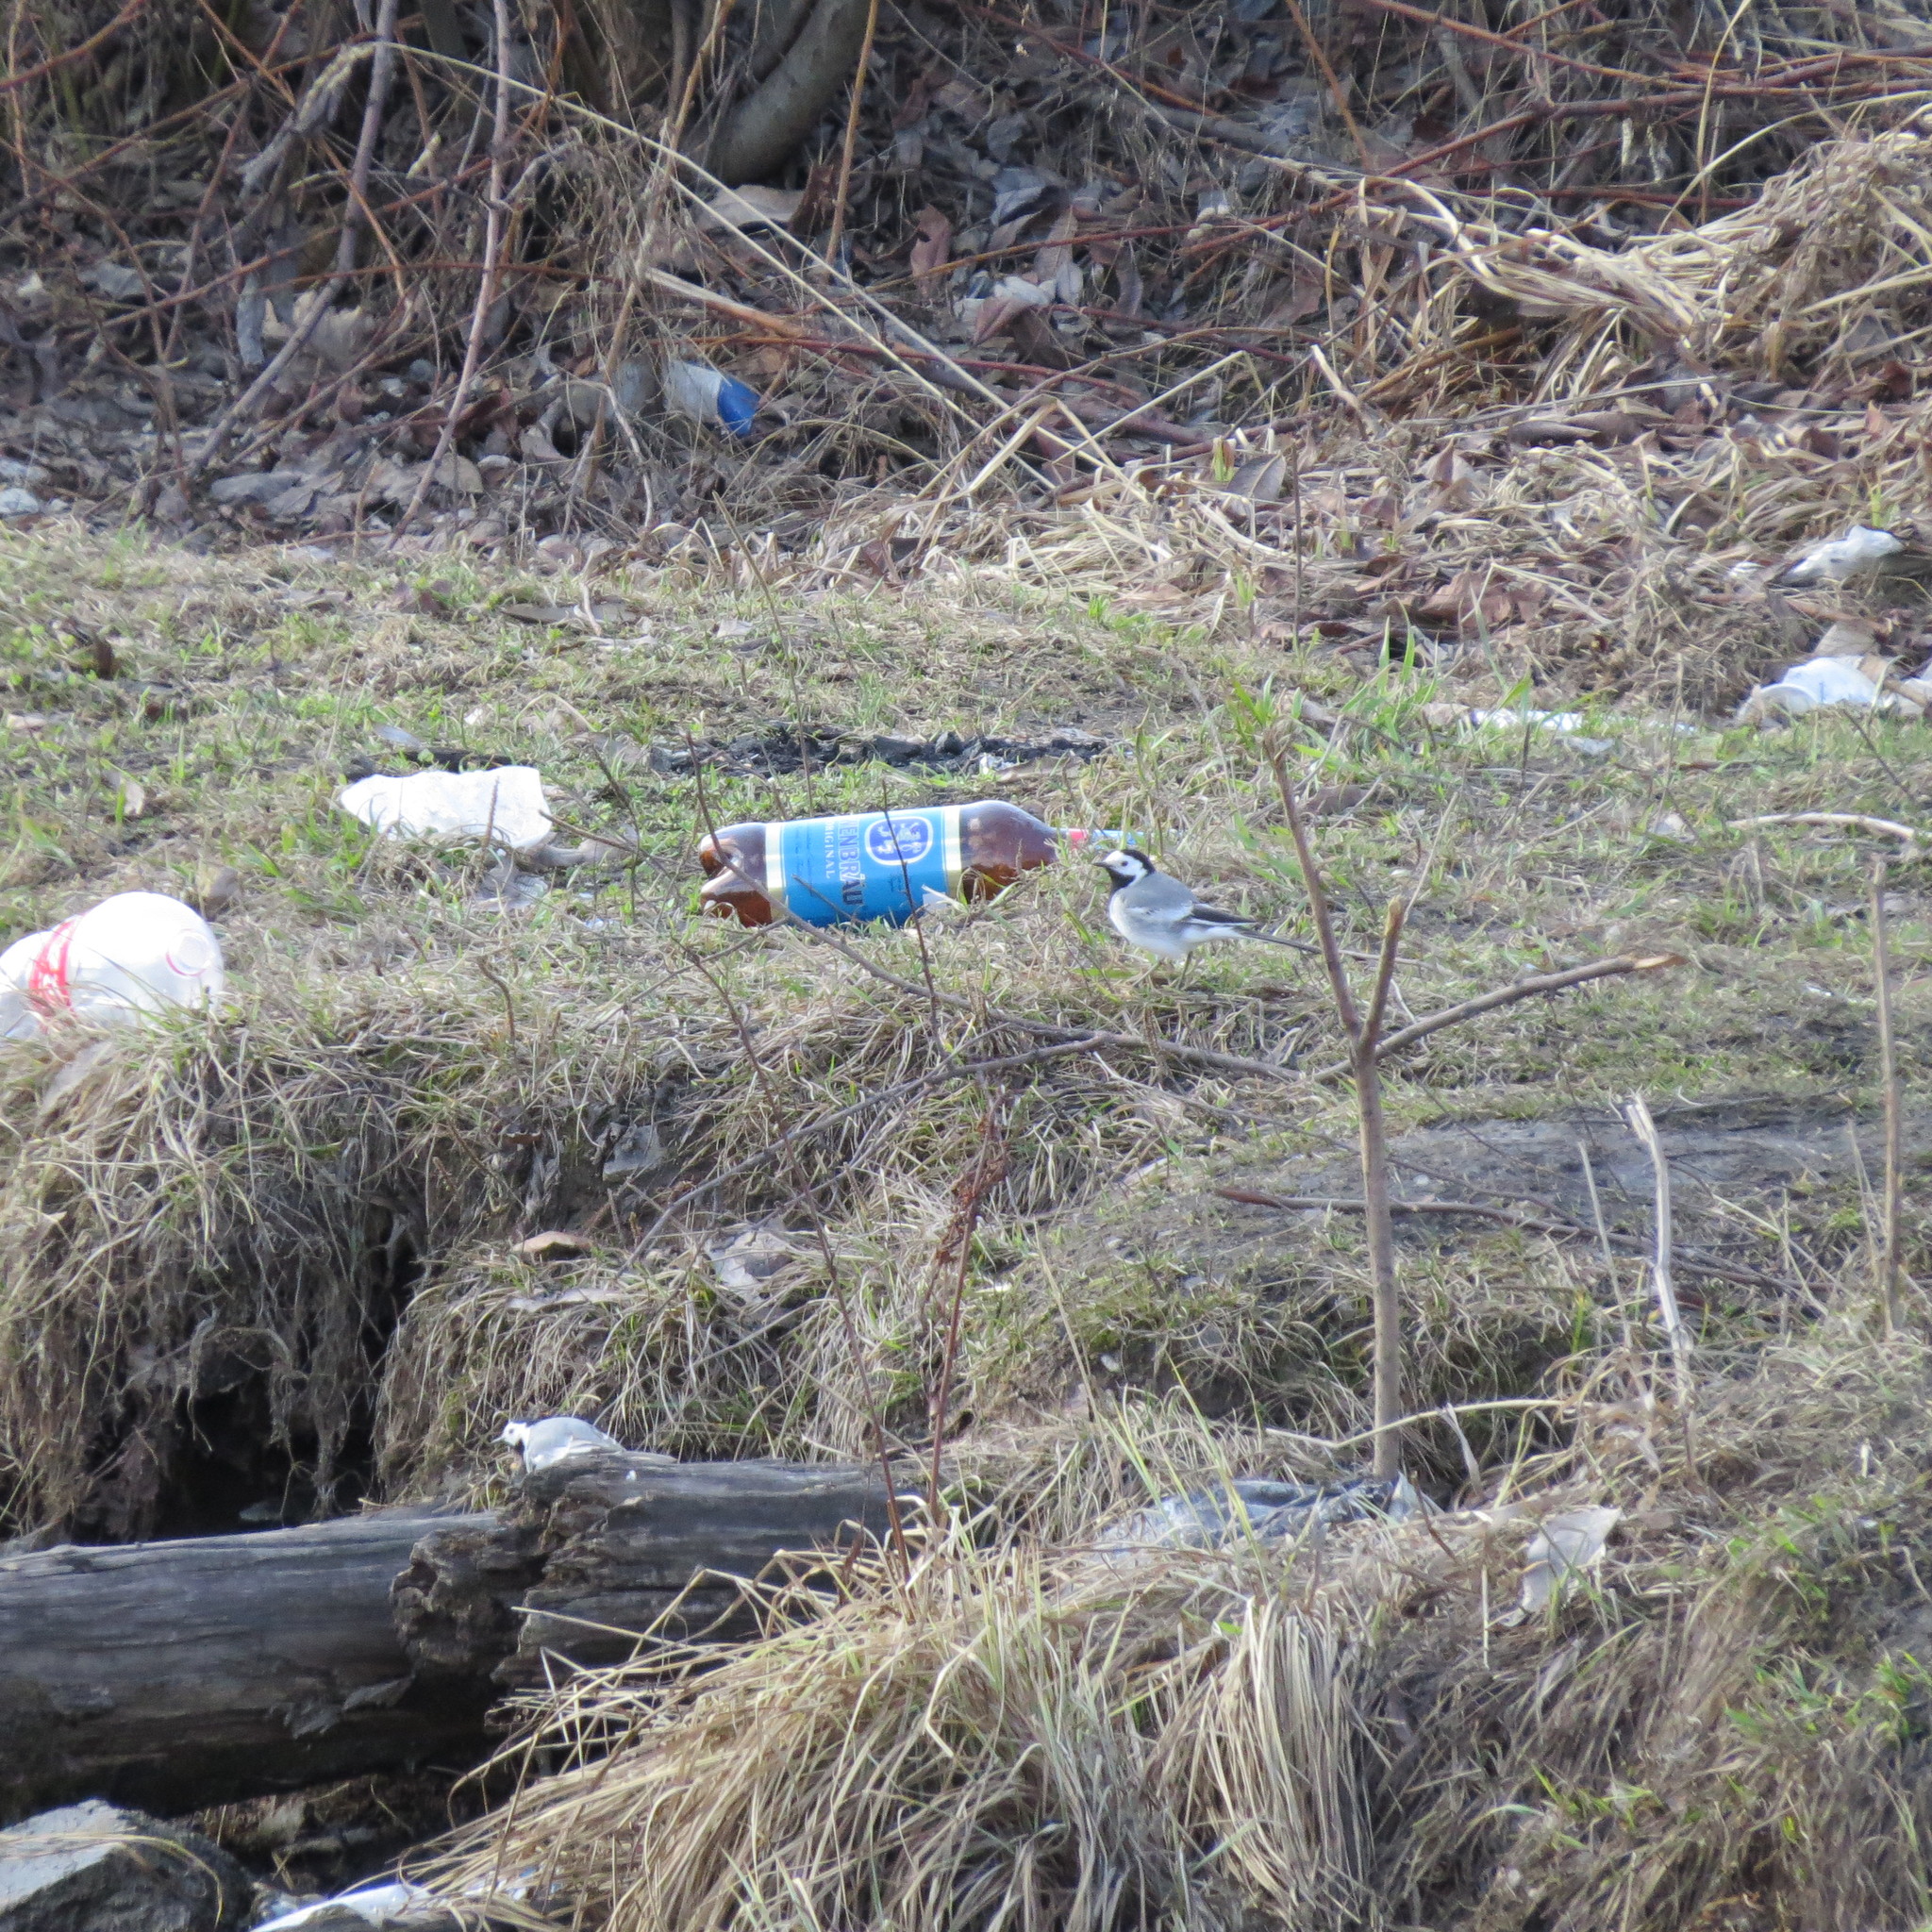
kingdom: Animalia
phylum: Chordata
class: Aves
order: Passeriformes
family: Motacillidae
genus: Motacilla
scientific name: Motacilla alba
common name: White wagtail
